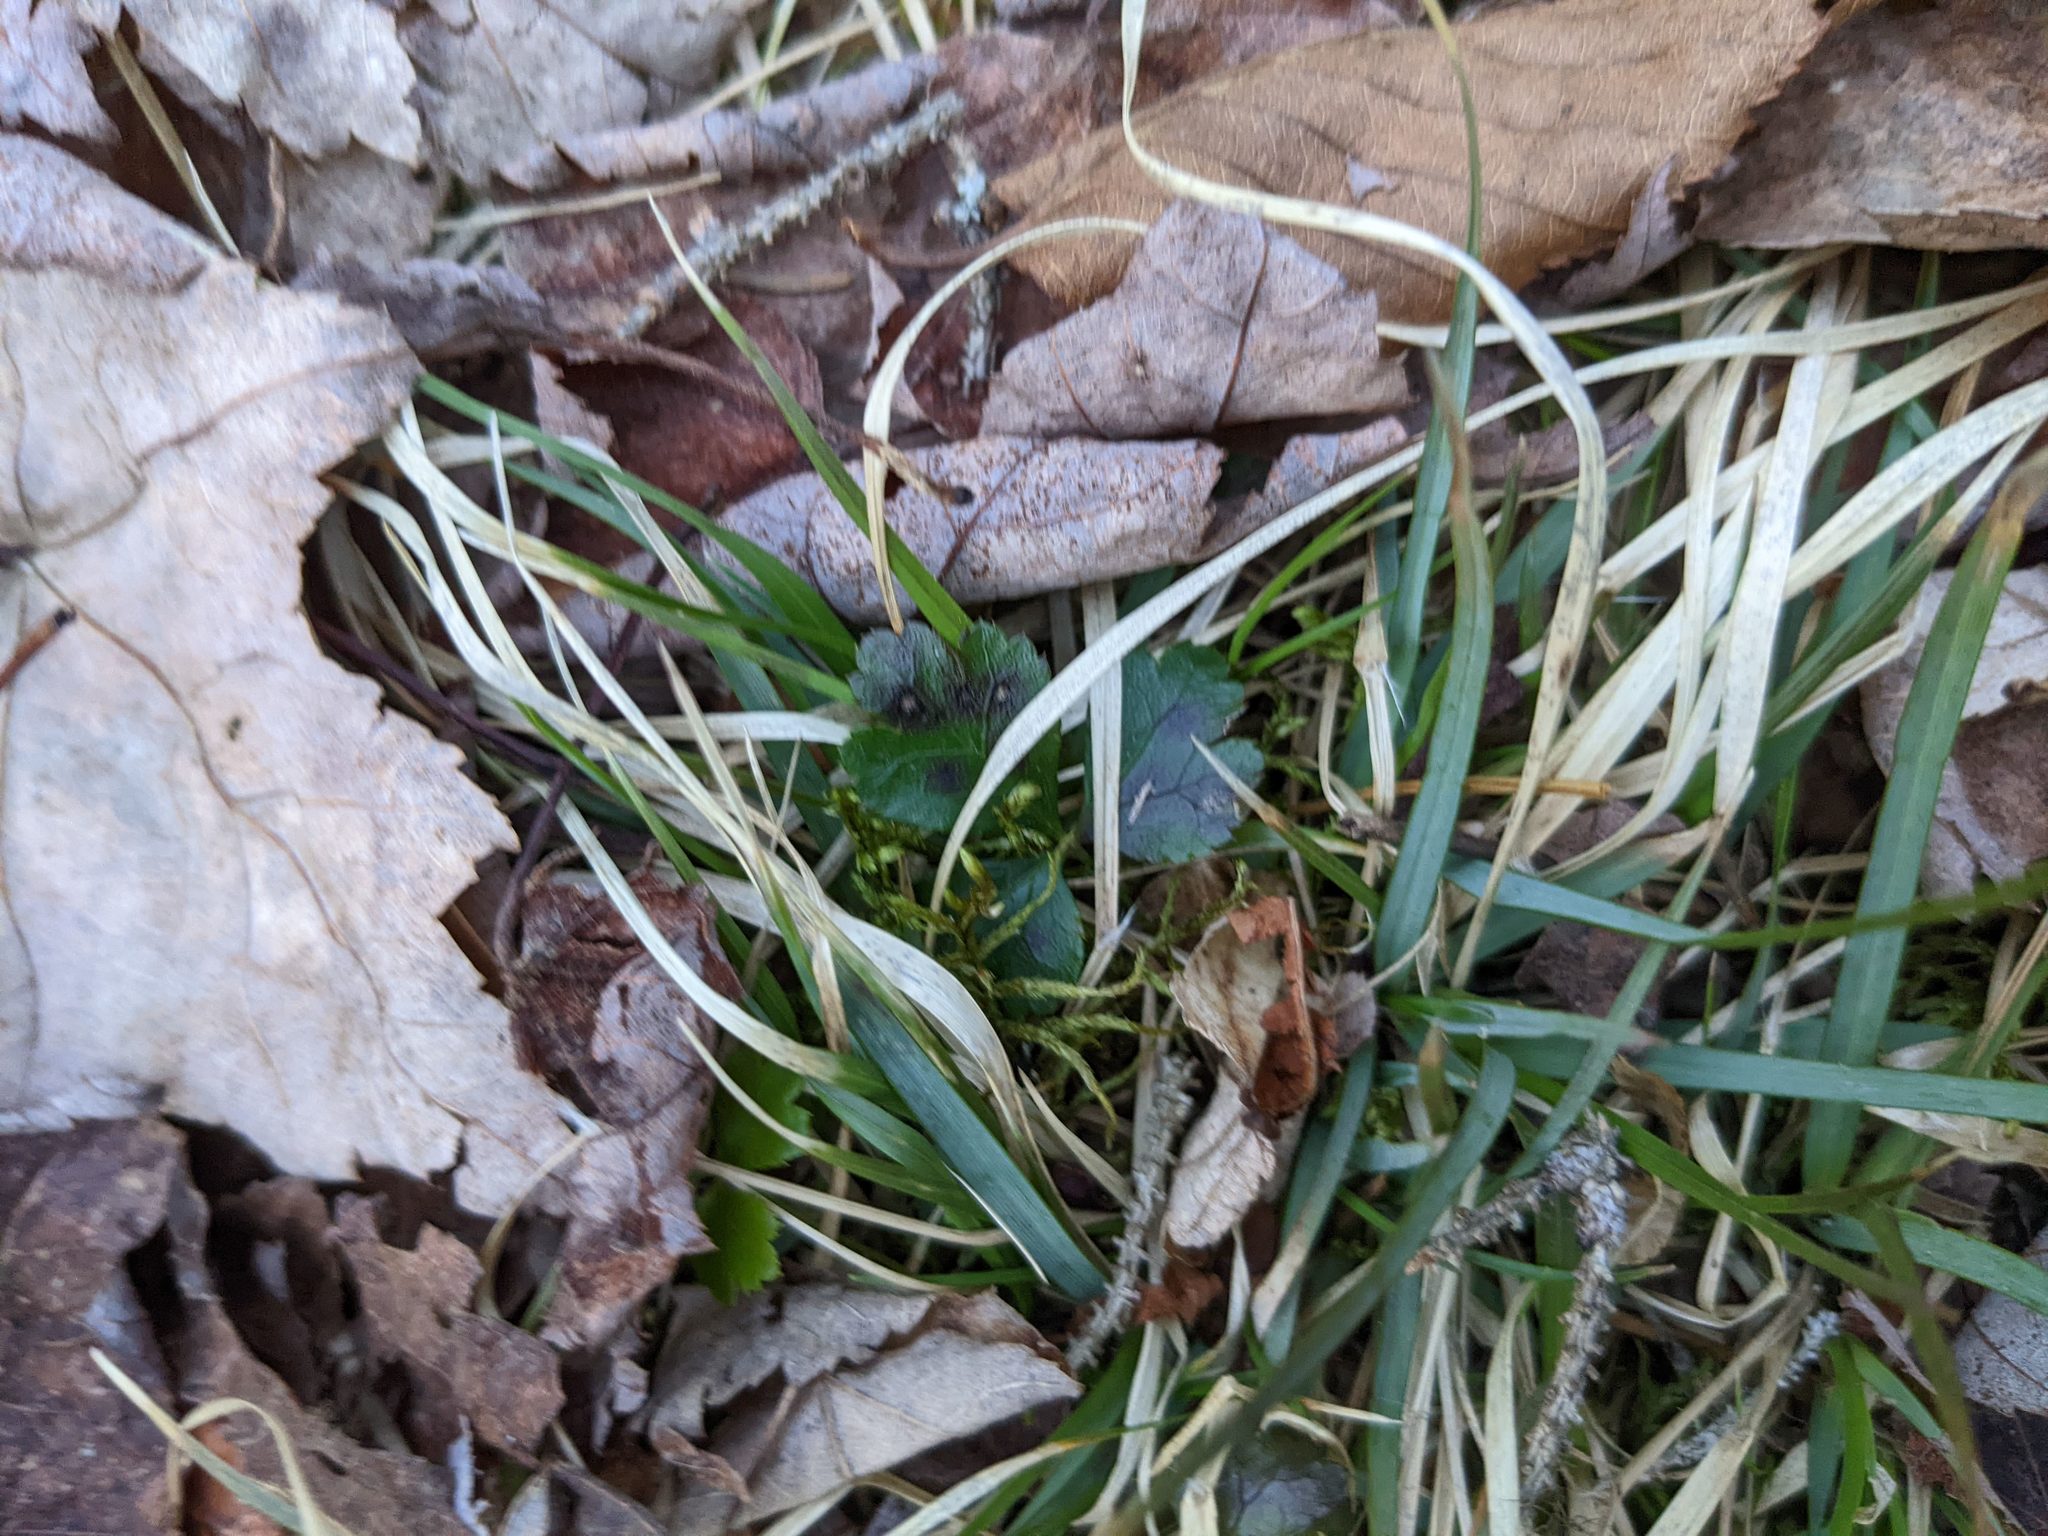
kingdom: Plantae
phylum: Tracheophyta
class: Magnoliopsida
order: Ranunculales
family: Ranunculaceae
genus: Coptis
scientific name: Coptis trifolia
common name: Canker-root
